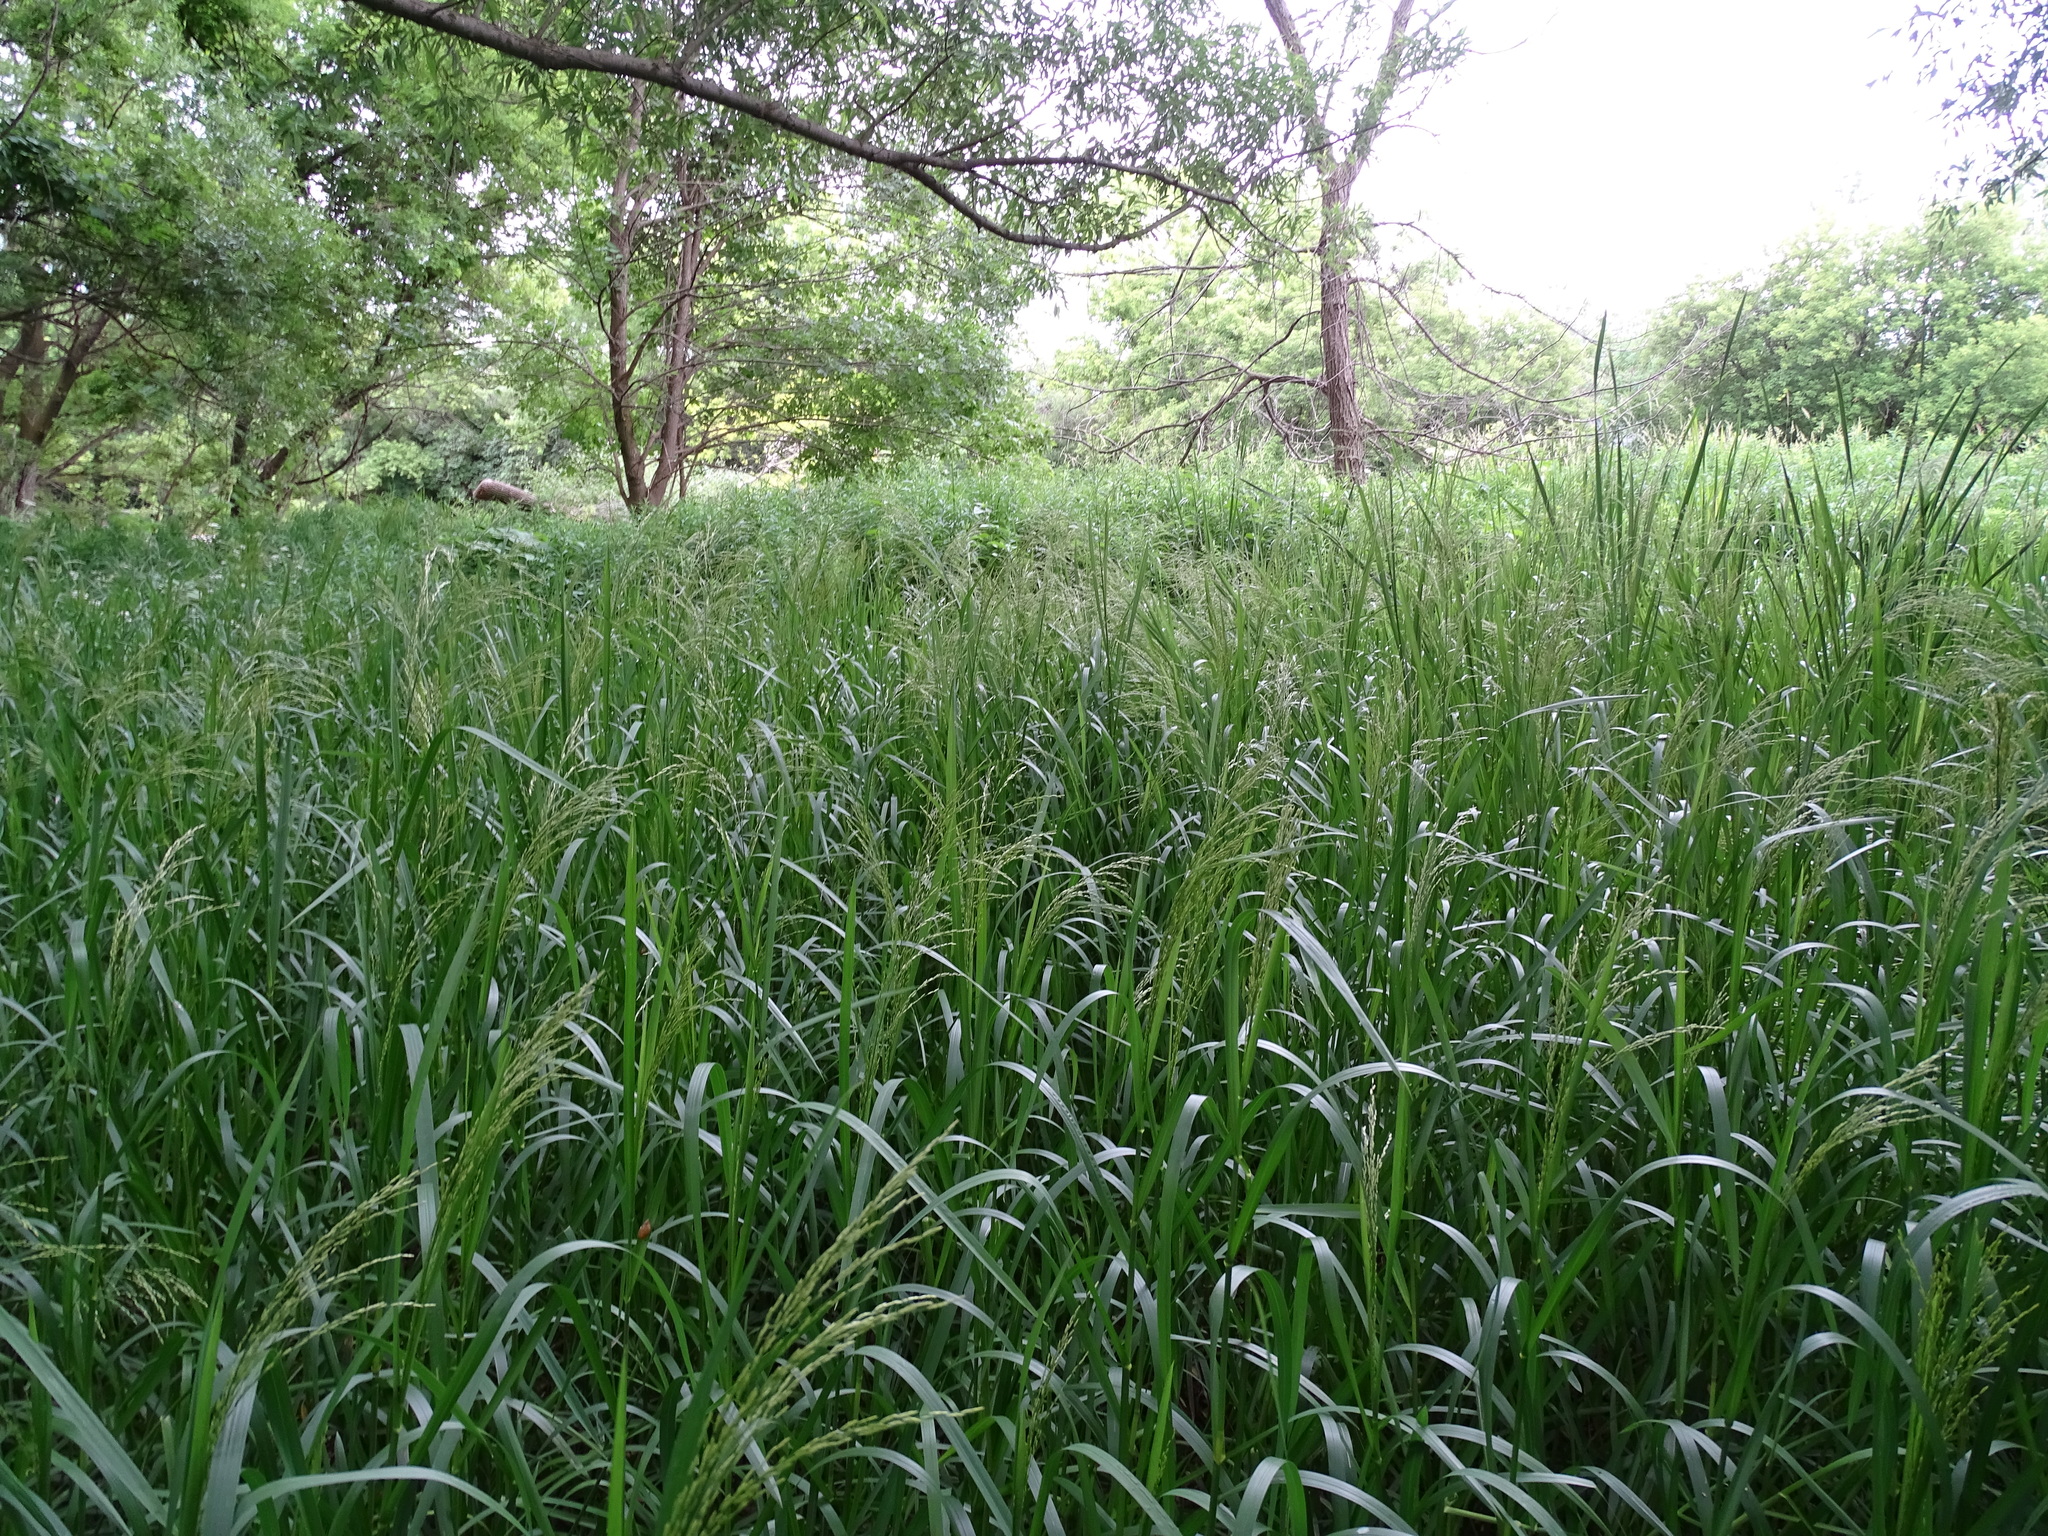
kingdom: Plantae
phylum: Tracheophyta
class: Liliopsida
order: Poales
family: Poaceae
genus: Glyceria
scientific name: Glyceria maxima
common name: Reed mannagrass
